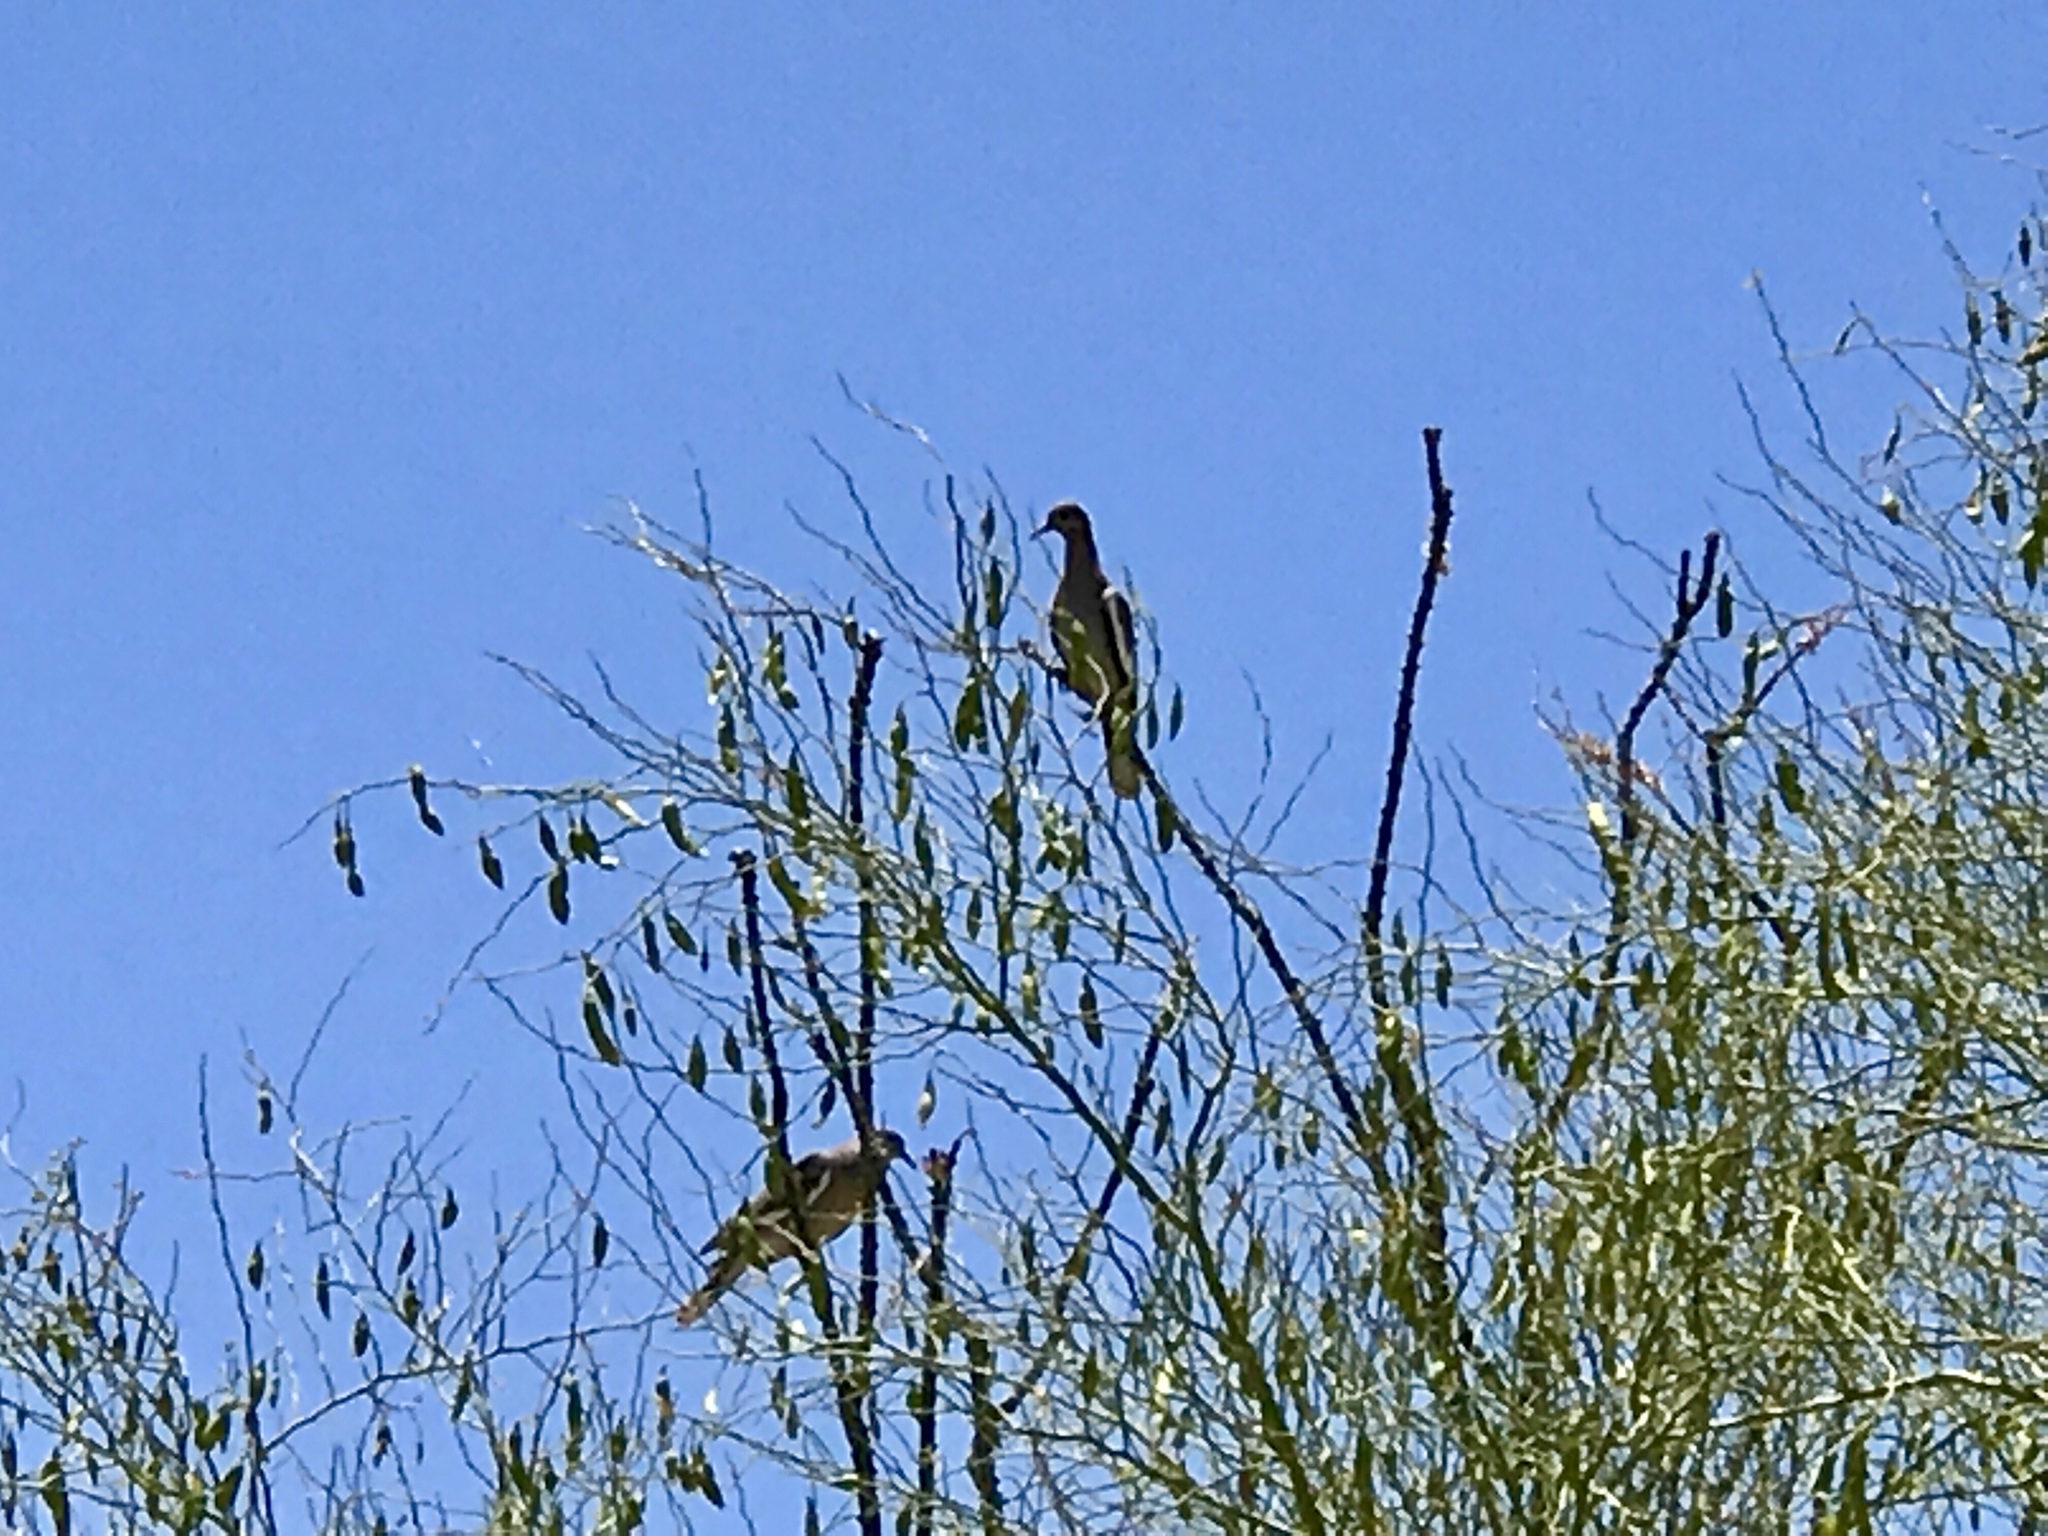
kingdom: Animalia
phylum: Chordata
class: Aves
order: Columbiformes
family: Columbidae
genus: Zenaida
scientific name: Zenaida asiatica
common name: White-winged dove
